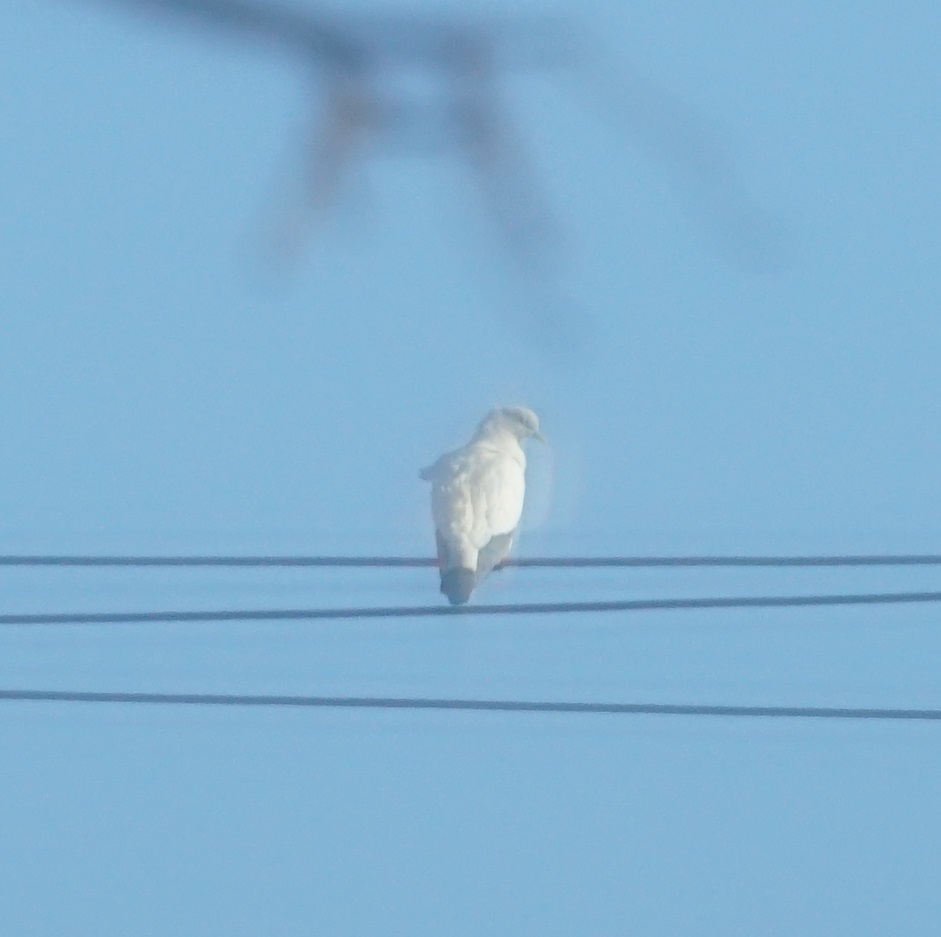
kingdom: Animalia
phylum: Chordata
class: Aves
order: Columbiformes
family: Columbidae
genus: Ducula
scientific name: Ducula spilorrhoa
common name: Torresian imperial pigeon
